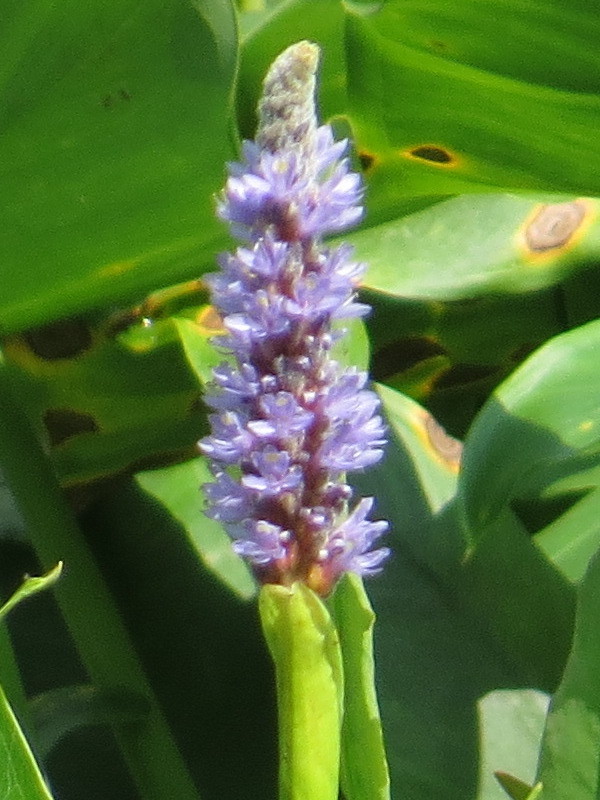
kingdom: Plantae
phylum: Tracheophyta
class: Liliopsida
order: Commelinales
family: Pontederiaceae
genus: Pontederia
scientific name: Pontederia cordata
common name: Pickerelweed
